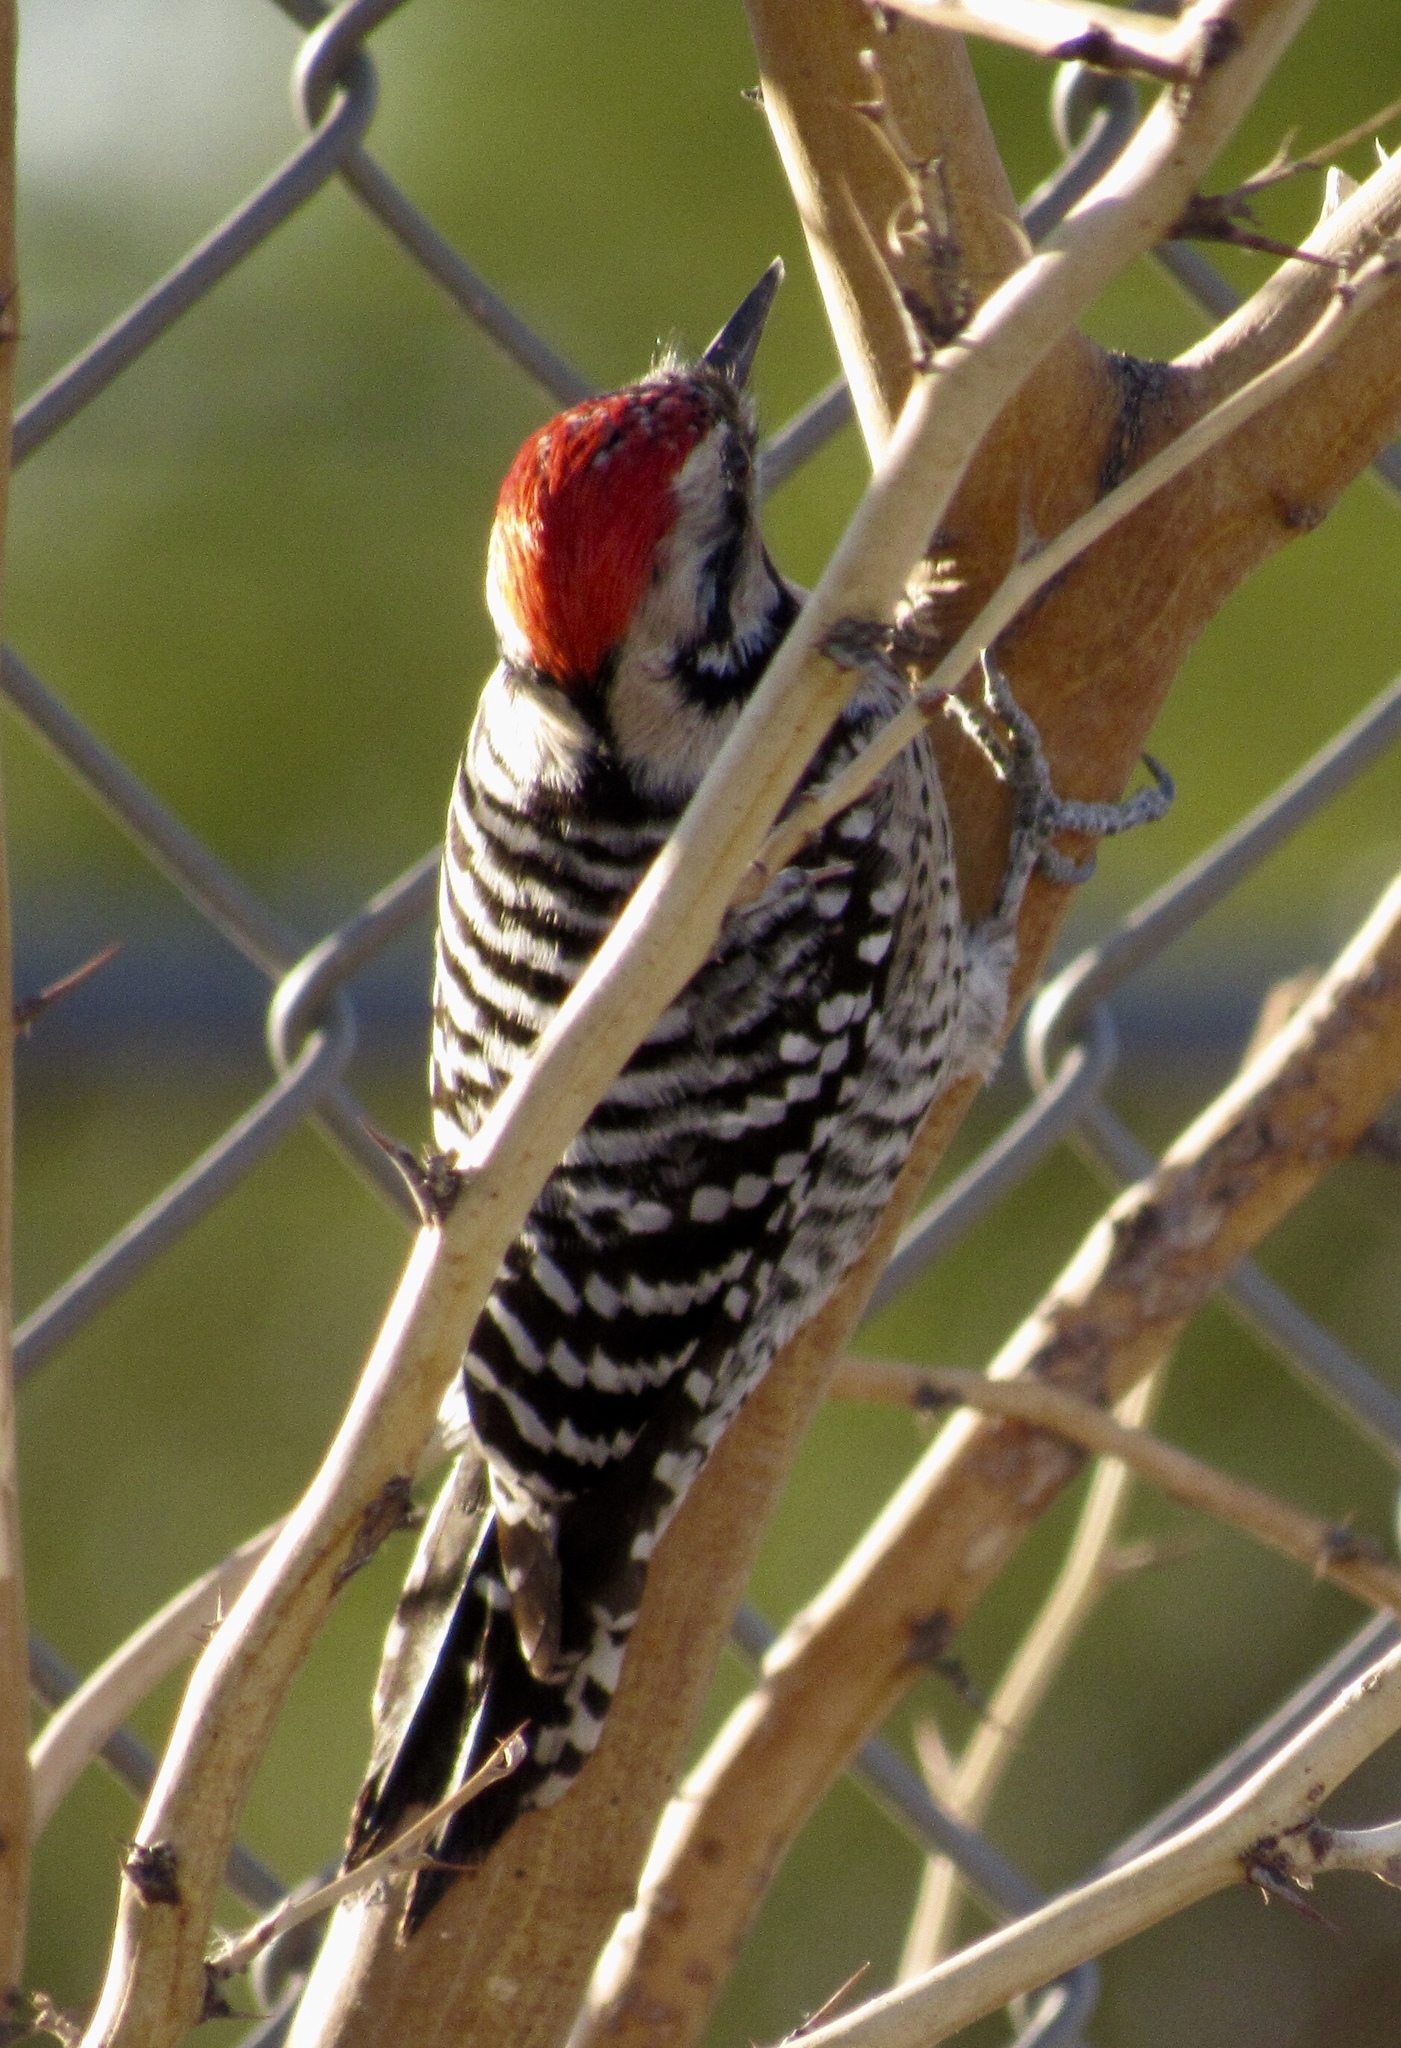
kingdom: Animalia
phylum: Chordata
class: Aves
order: Piciformes
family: Picidae
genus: Dryobates
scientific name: Dryobates scalaris
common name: Ladder-backed woodpecker
